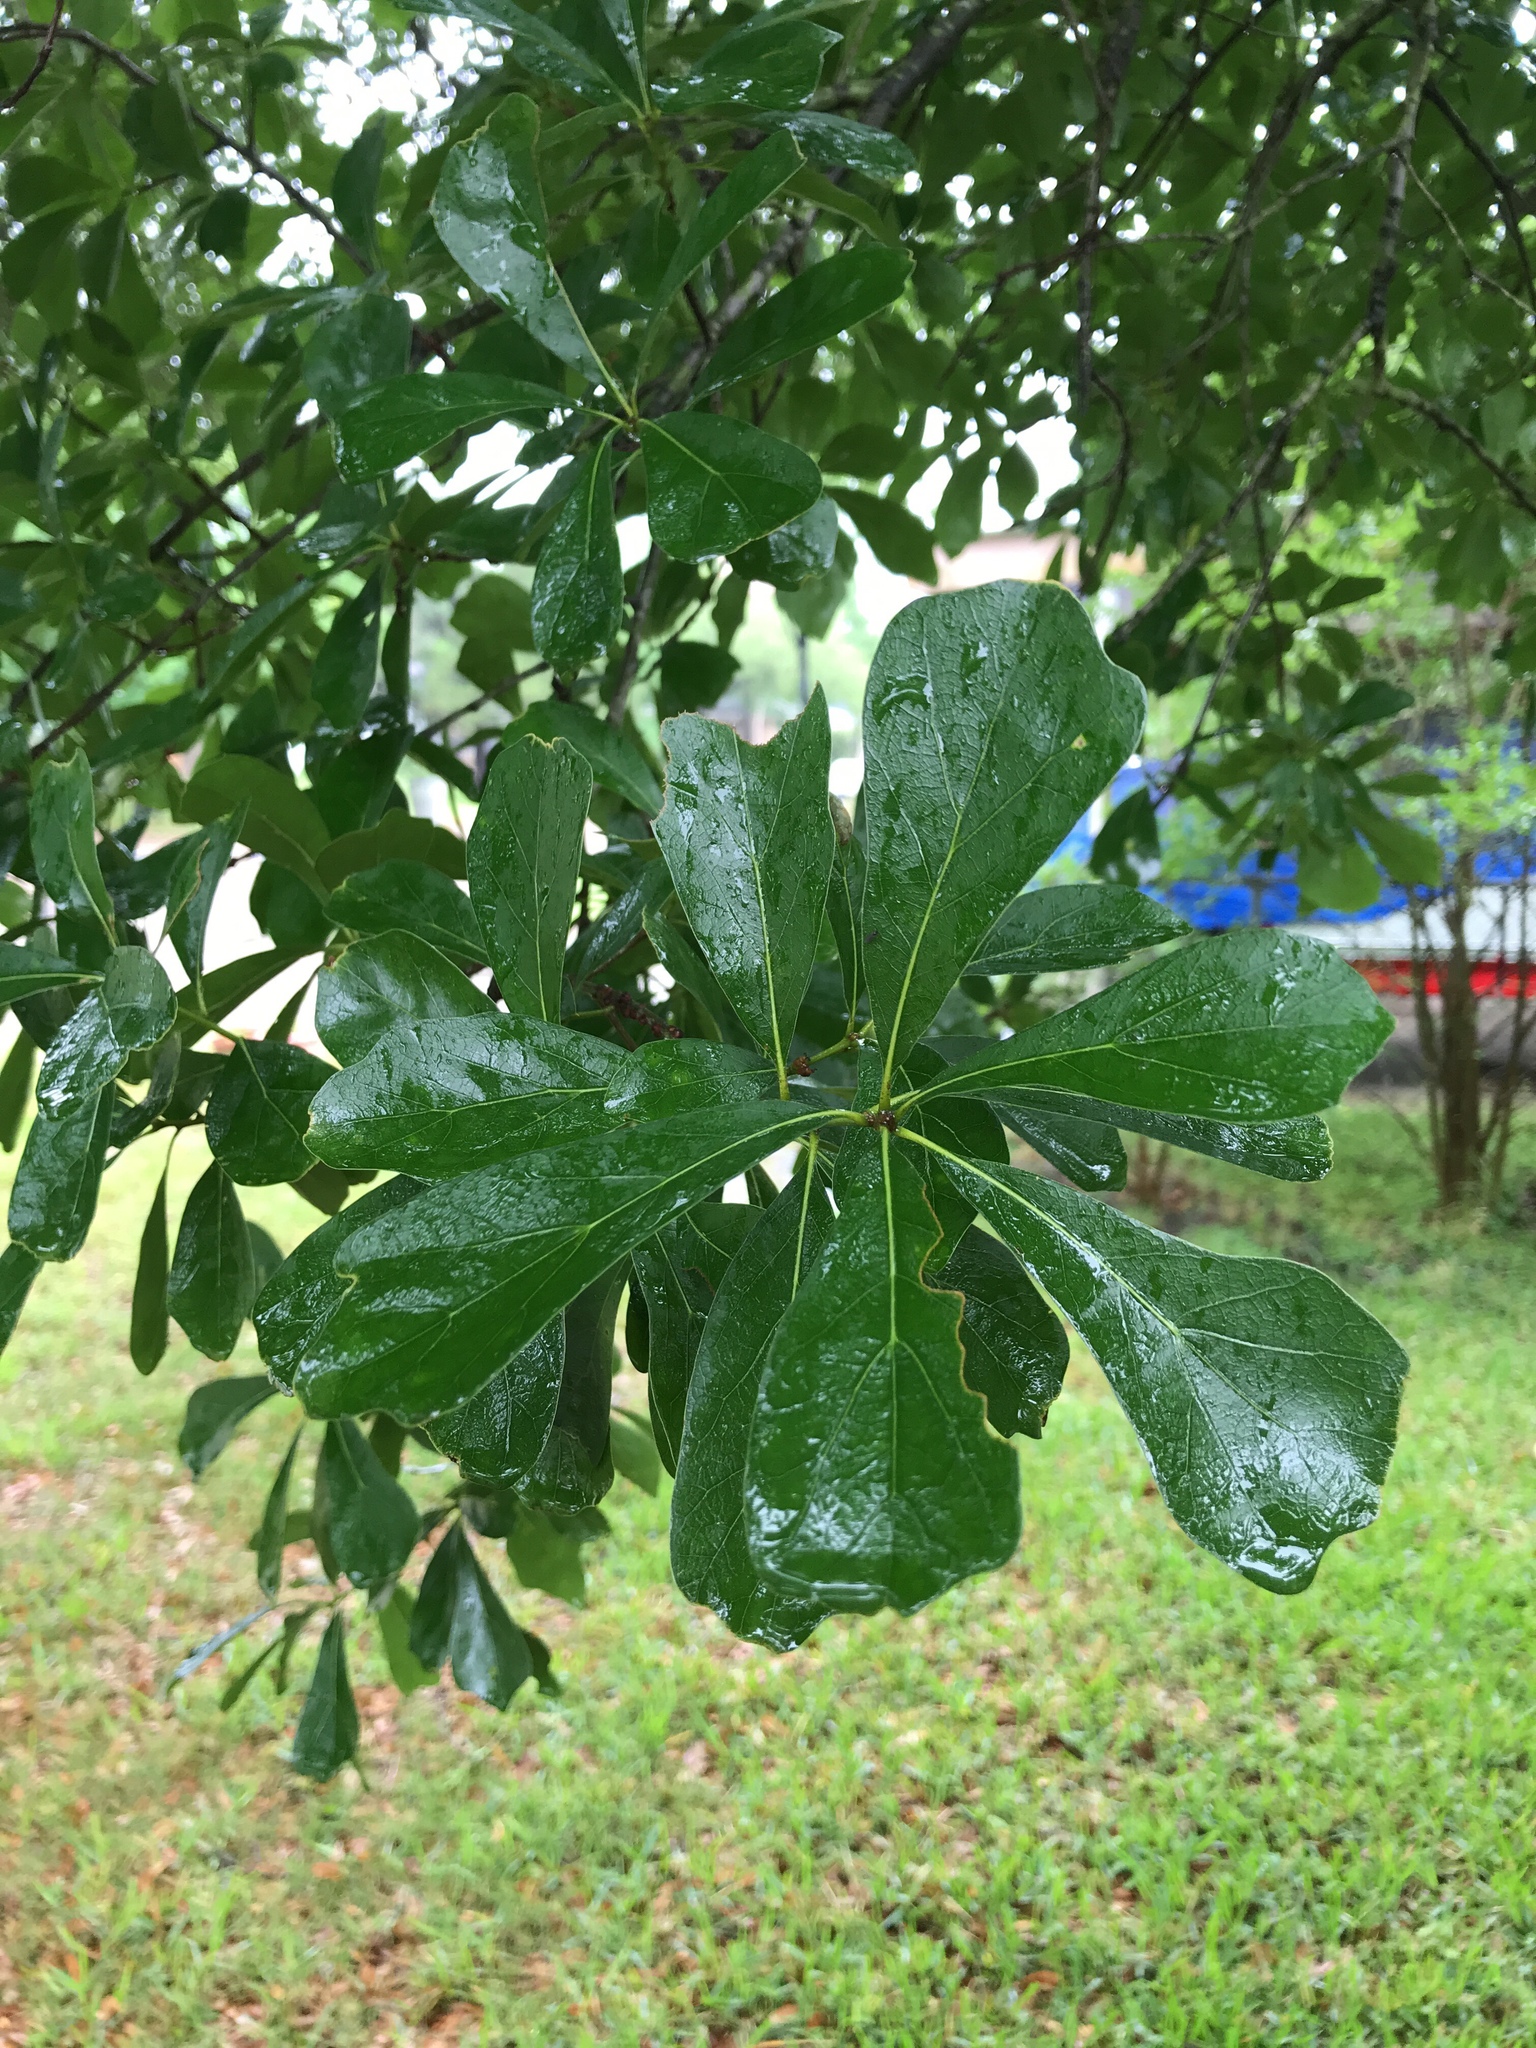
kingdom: Plantae
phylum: Tracheophyta
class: Magnoliopsida
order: Fagales
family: Fagaceae
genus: Quercus
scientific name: Quercus nigra
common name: Water oak
